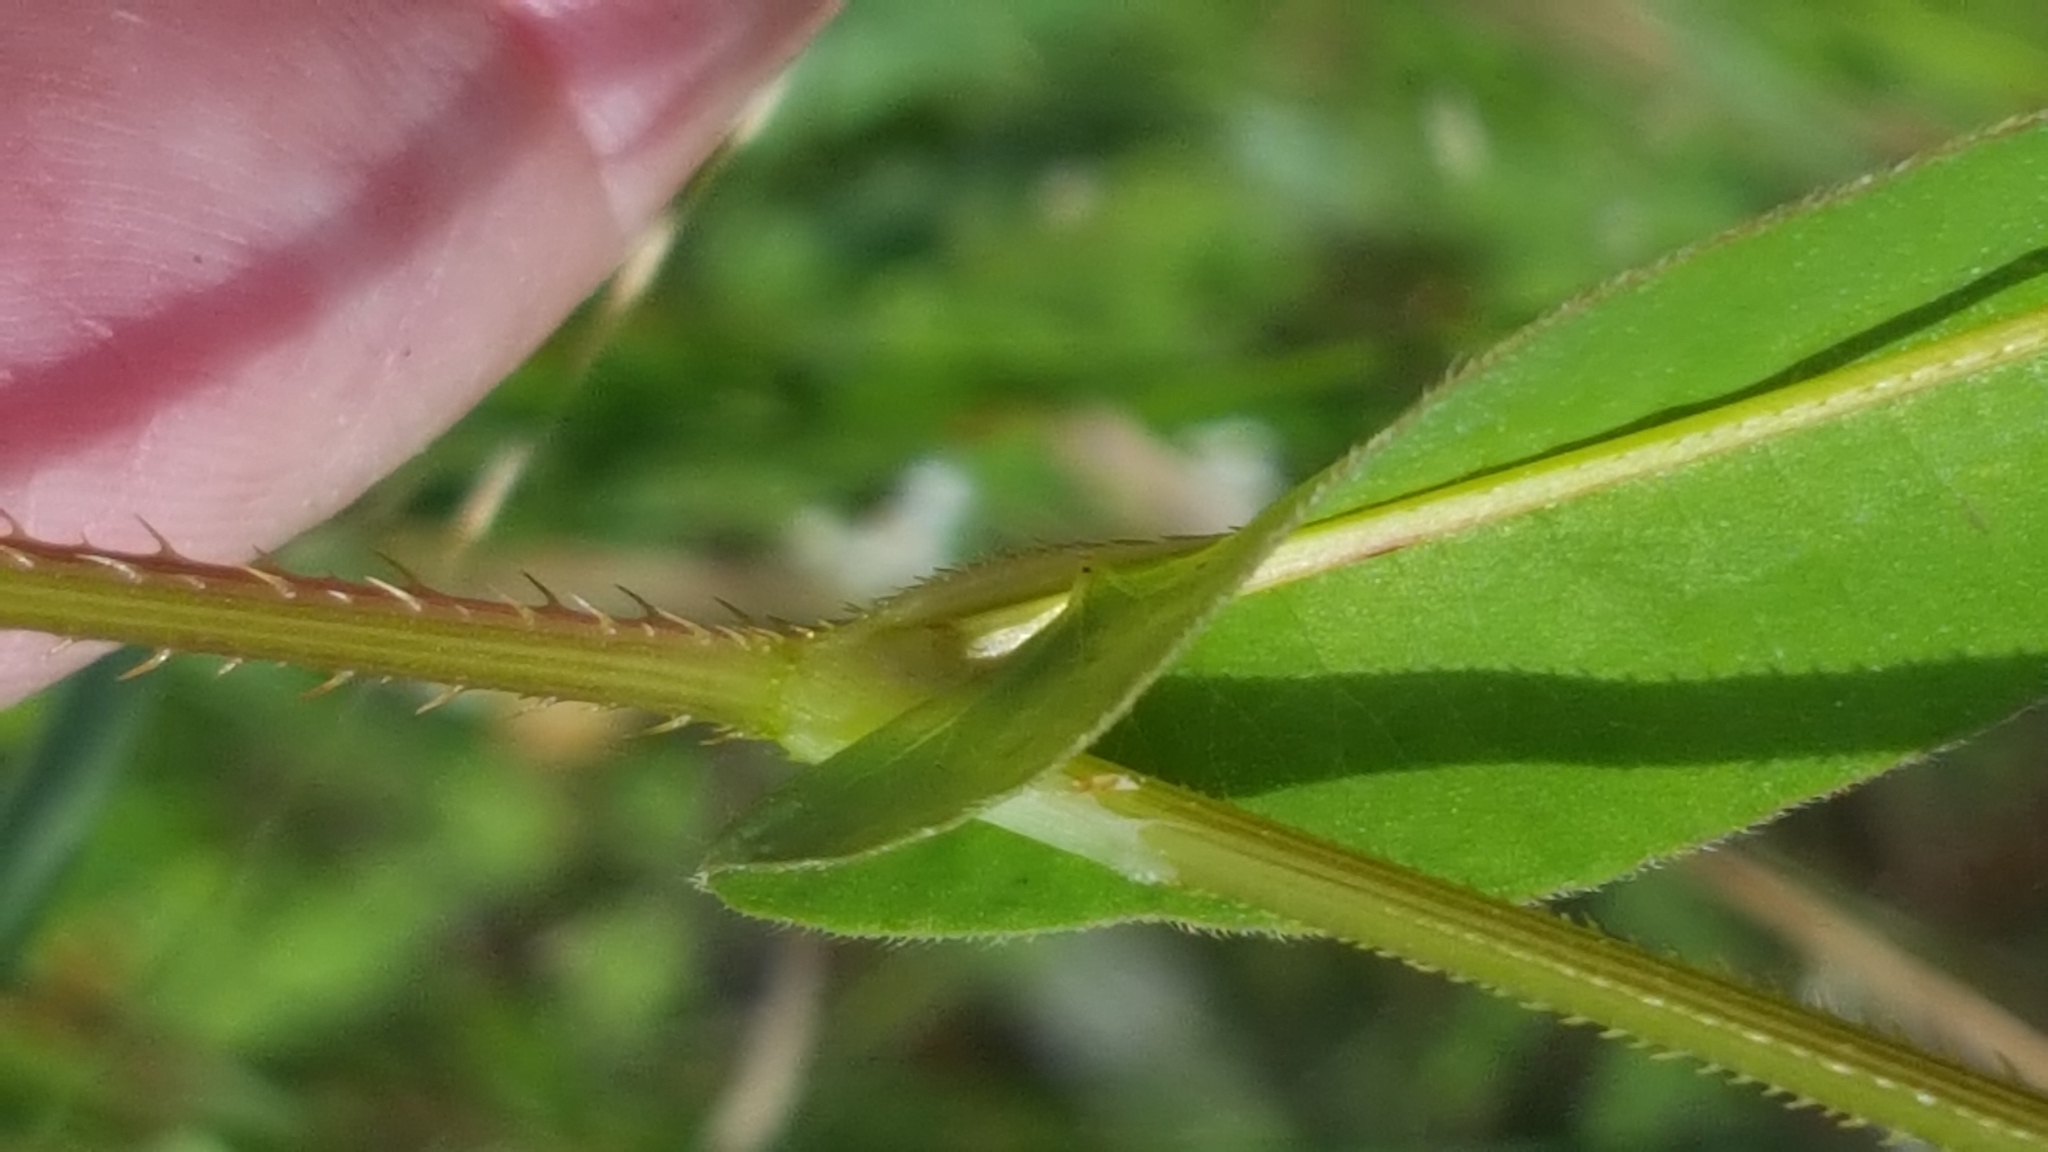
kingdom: Plantae
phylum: Tracheophyta
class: Magnoliopsida
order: Caryophyllales
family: Polygonaceae
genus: Persicaria
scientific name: Persicaria sagittata
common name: American tearthumb
